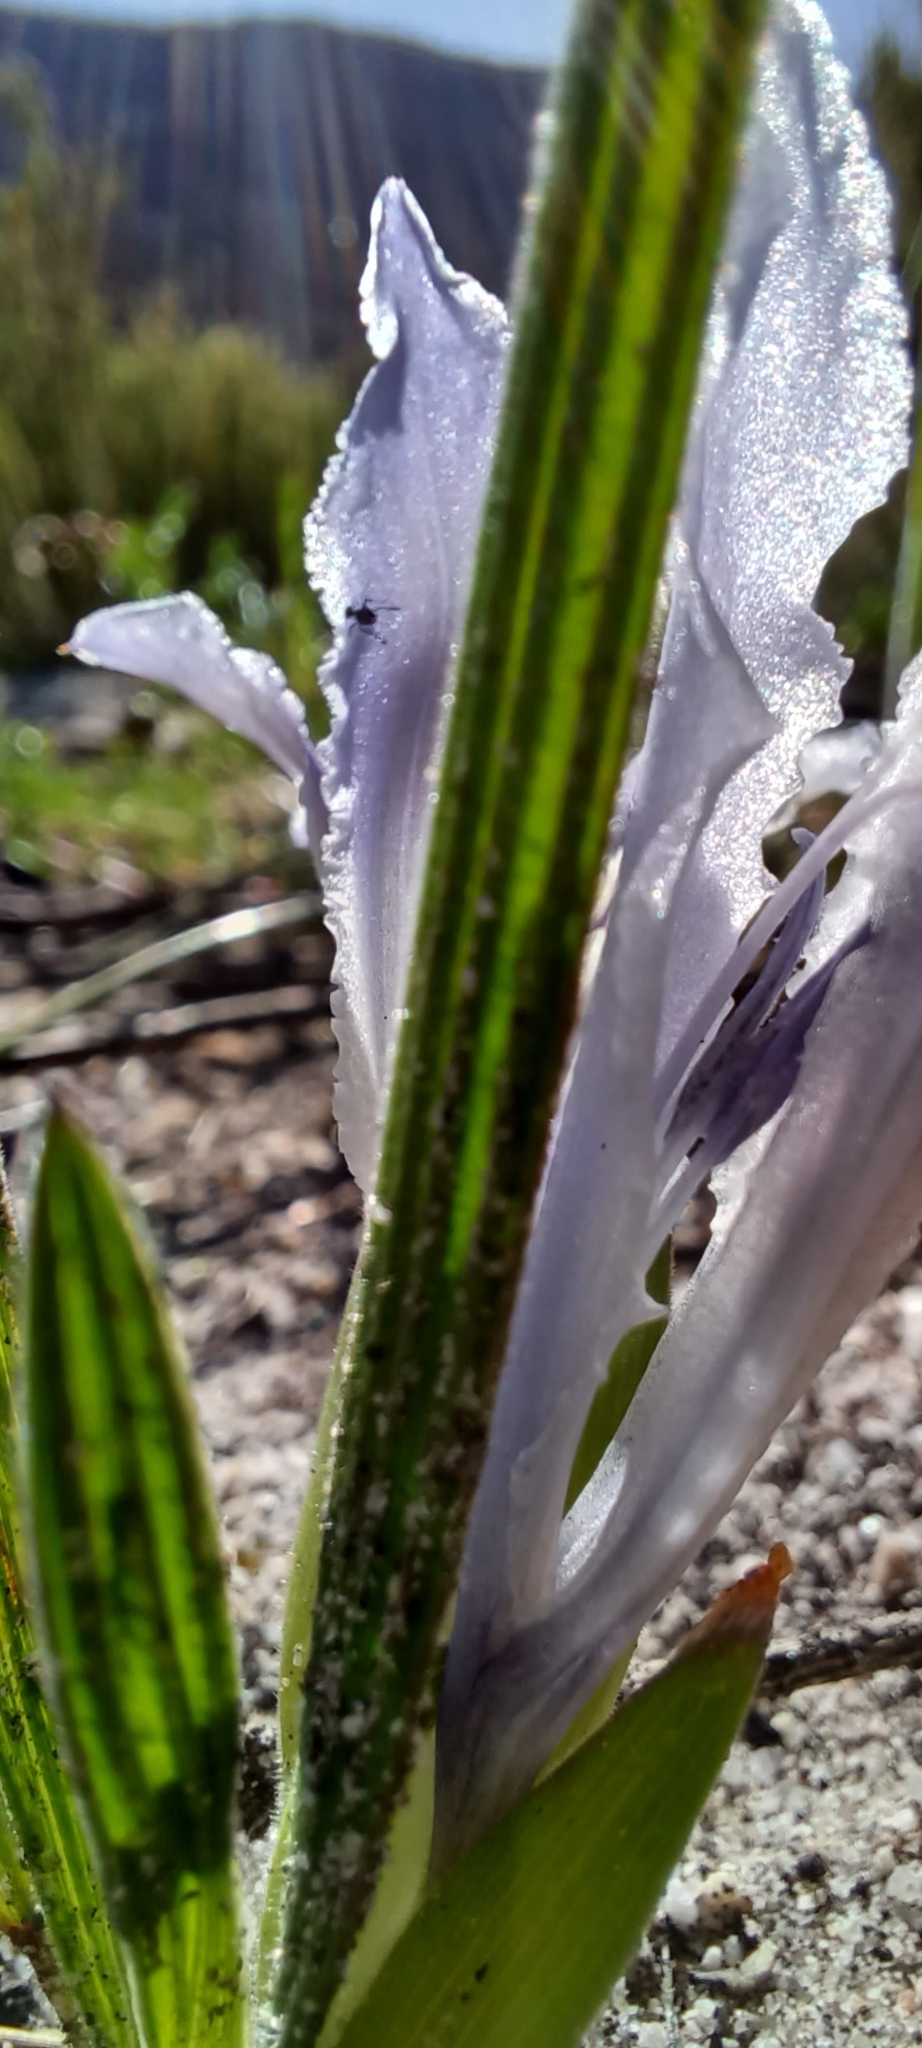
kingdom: Plantae
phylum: Tracheophyta
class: Liliopsida
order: Asparagales
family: Iridaceae
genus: Babiana
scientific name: Babiana ambigua
